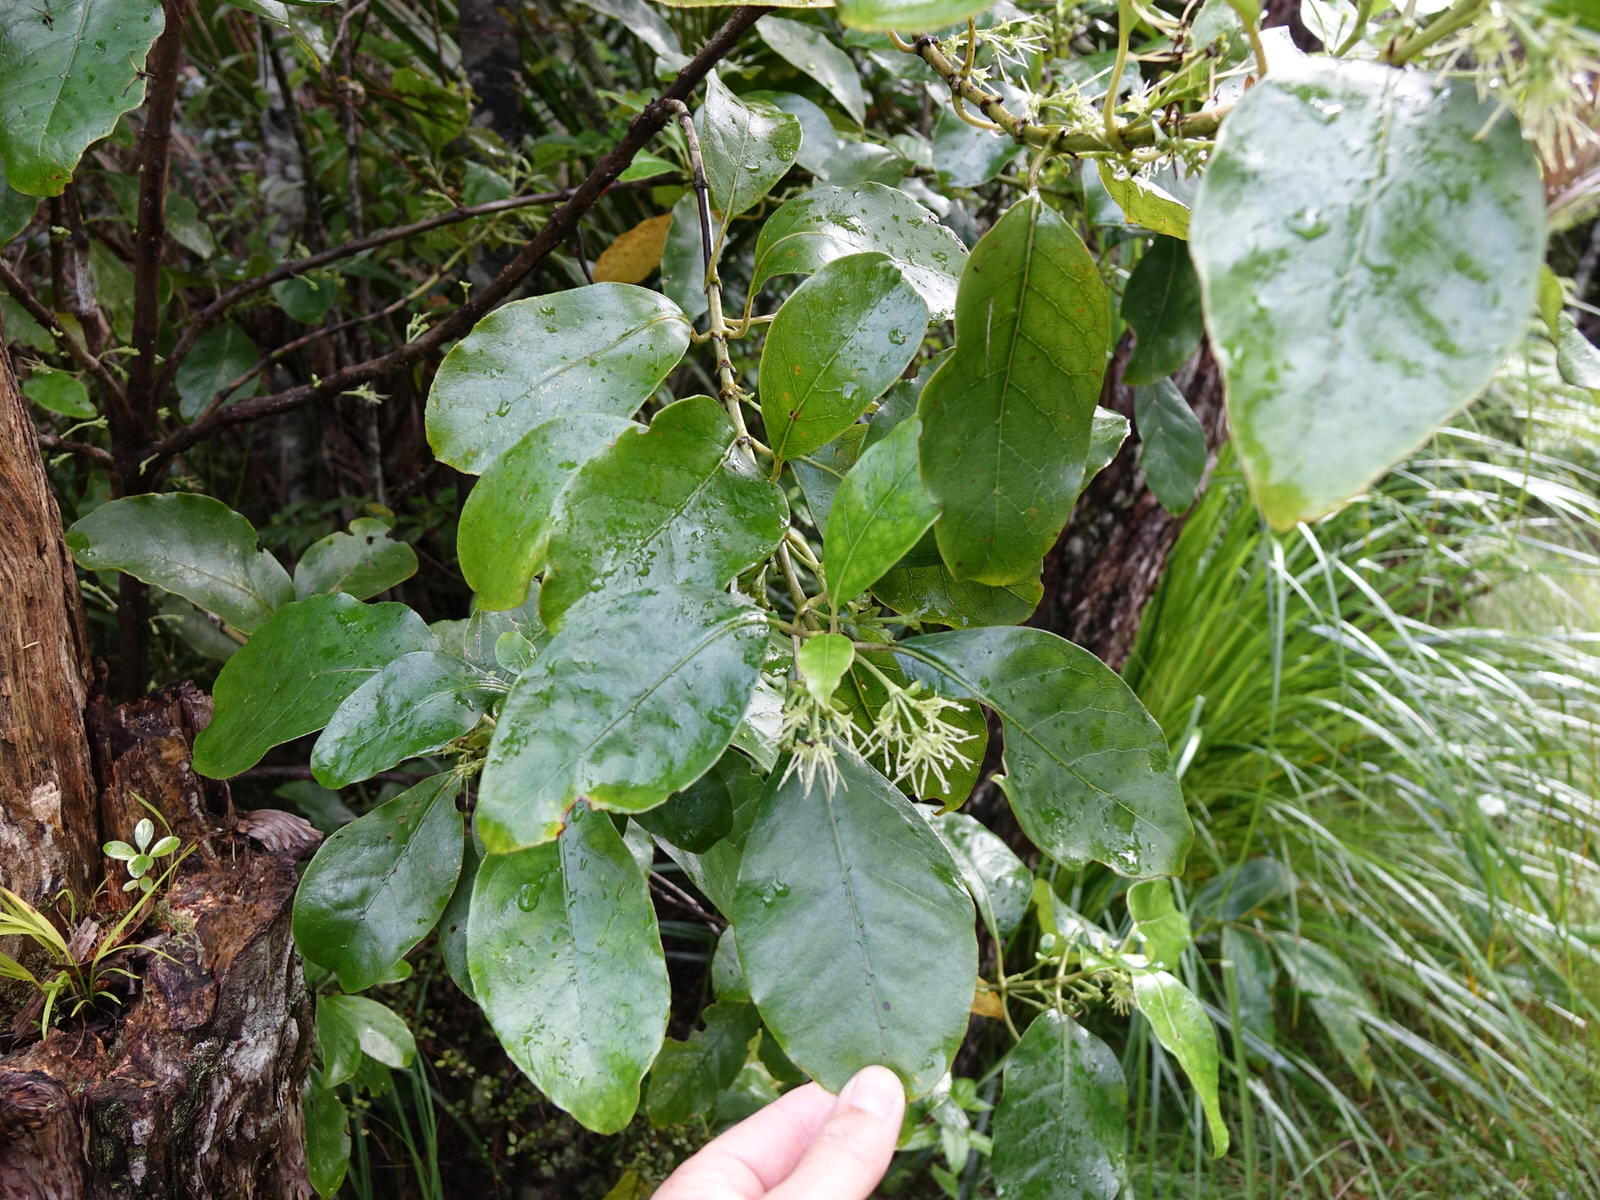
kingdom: Plantae
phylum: Tracheophyta
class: Magnoliopsida
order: Gentianales
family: Rubiaceae
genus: Coprosma
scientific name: Coprosma autumnalis
